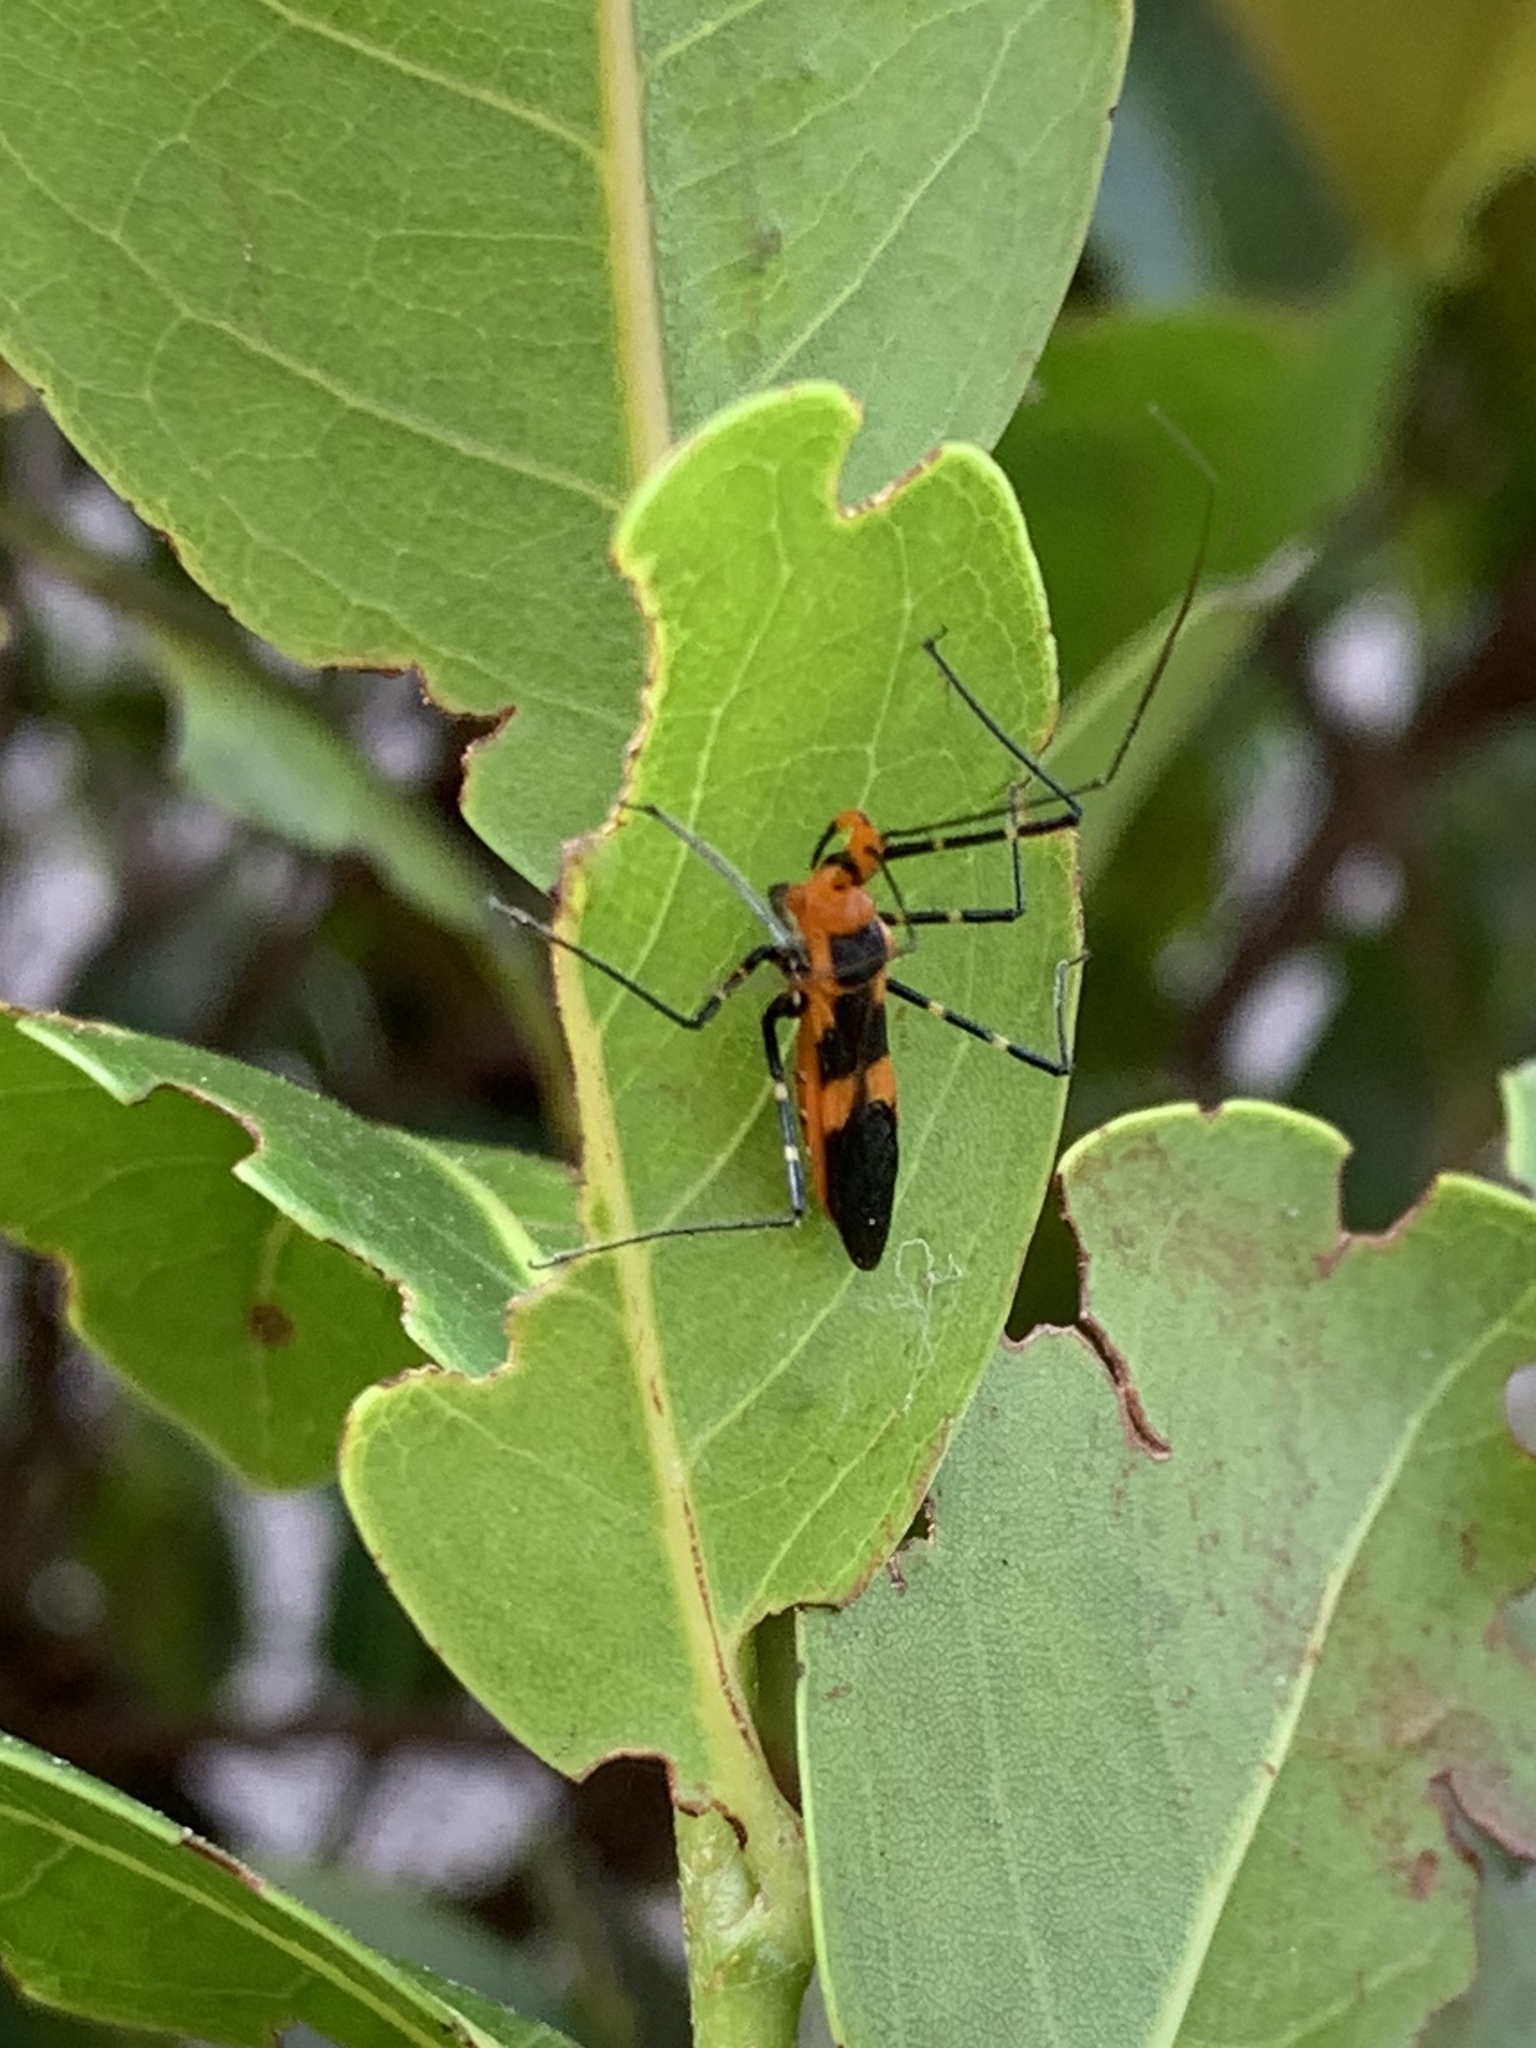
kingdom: Animalia
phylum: Arthropoda
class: Insecta
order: Hemiptera
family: Reduviidae
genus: Zelus
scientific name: Zelus longipes
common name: Milkweed assassin bug
